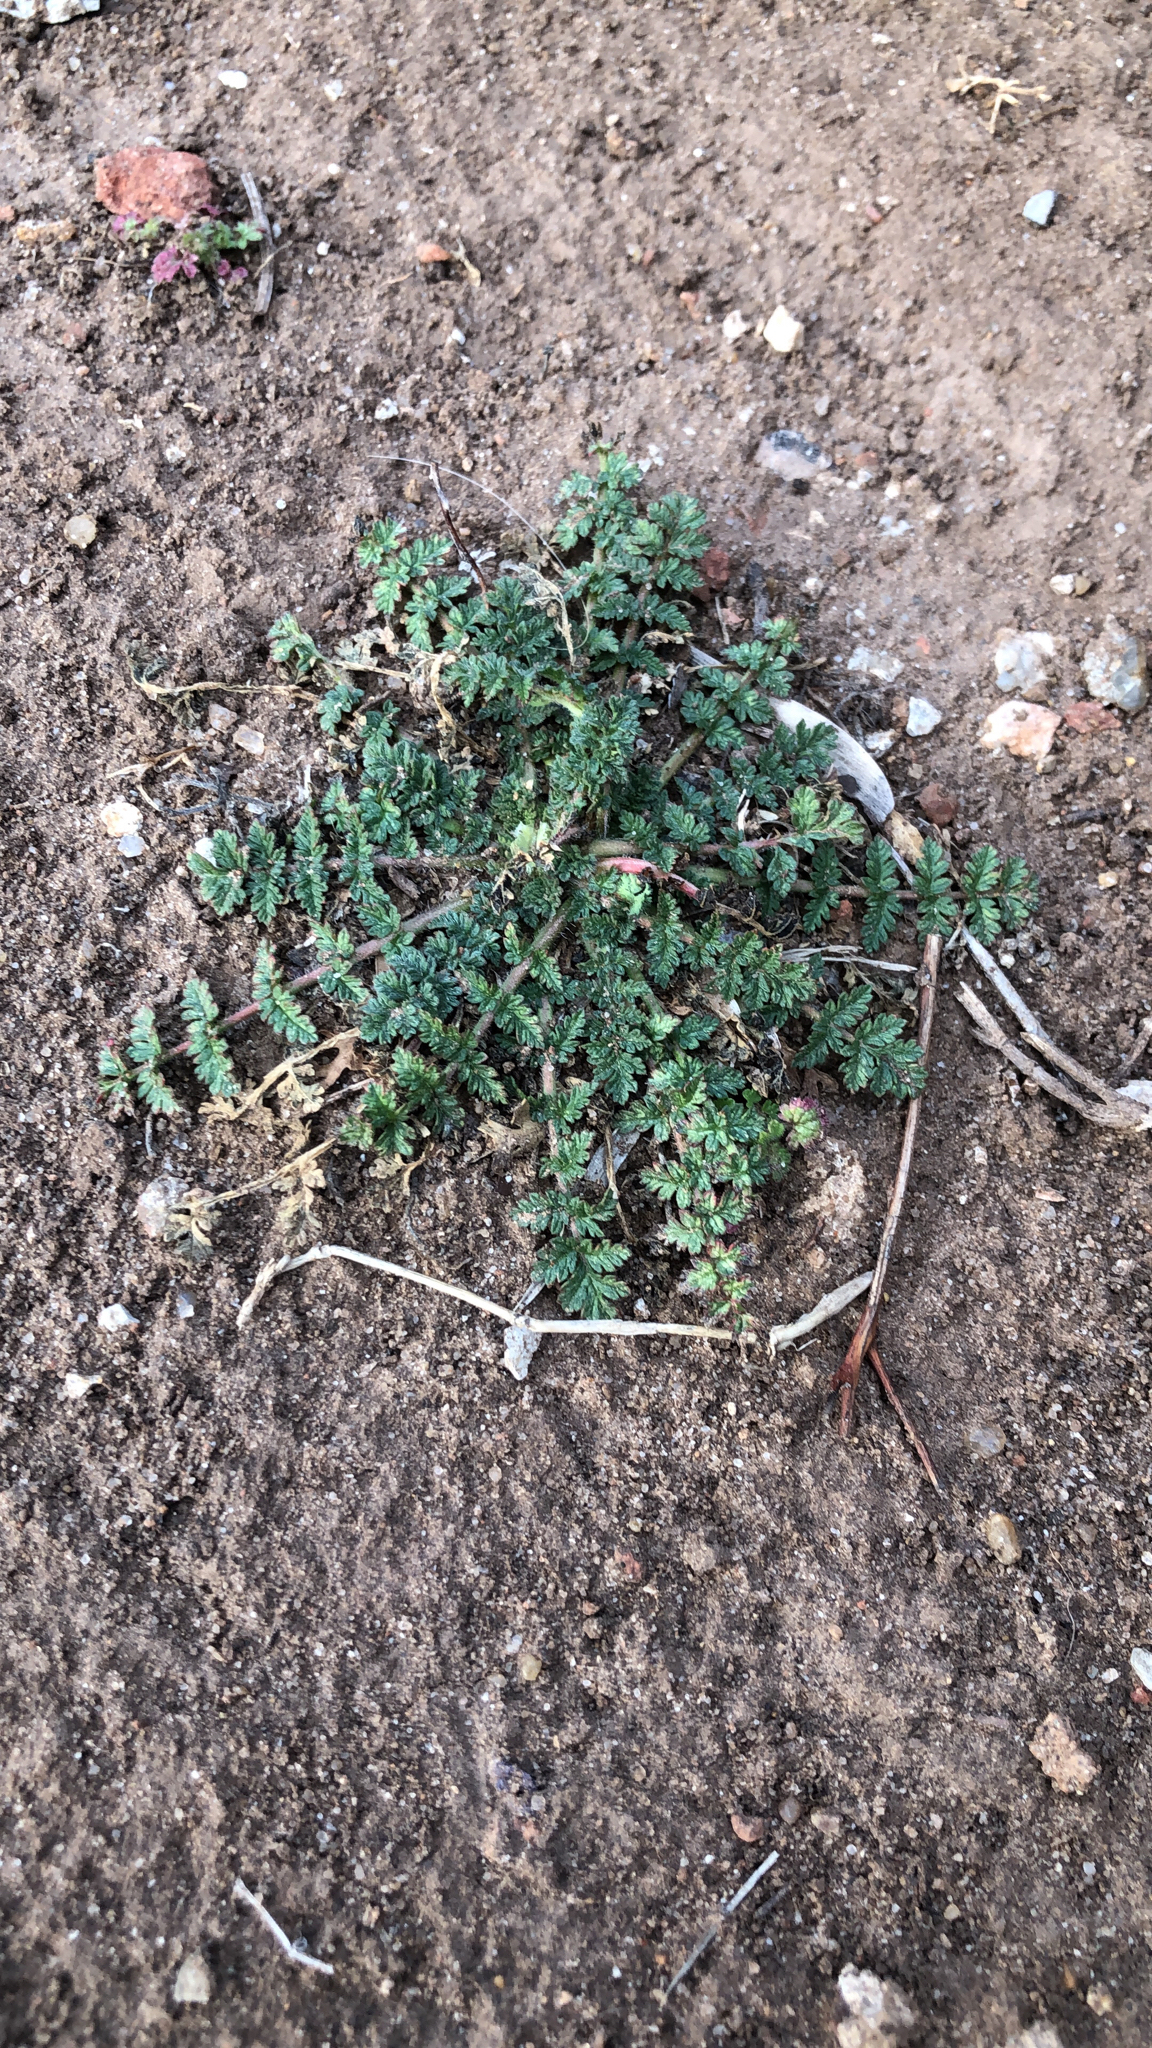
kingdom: Plantae
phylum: Tracheophyta
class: Magnoliopsida
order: Geraniales
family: Geraniaceae
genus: Erodium
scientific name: Erodium cicutarium
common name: Common stork's-bill
